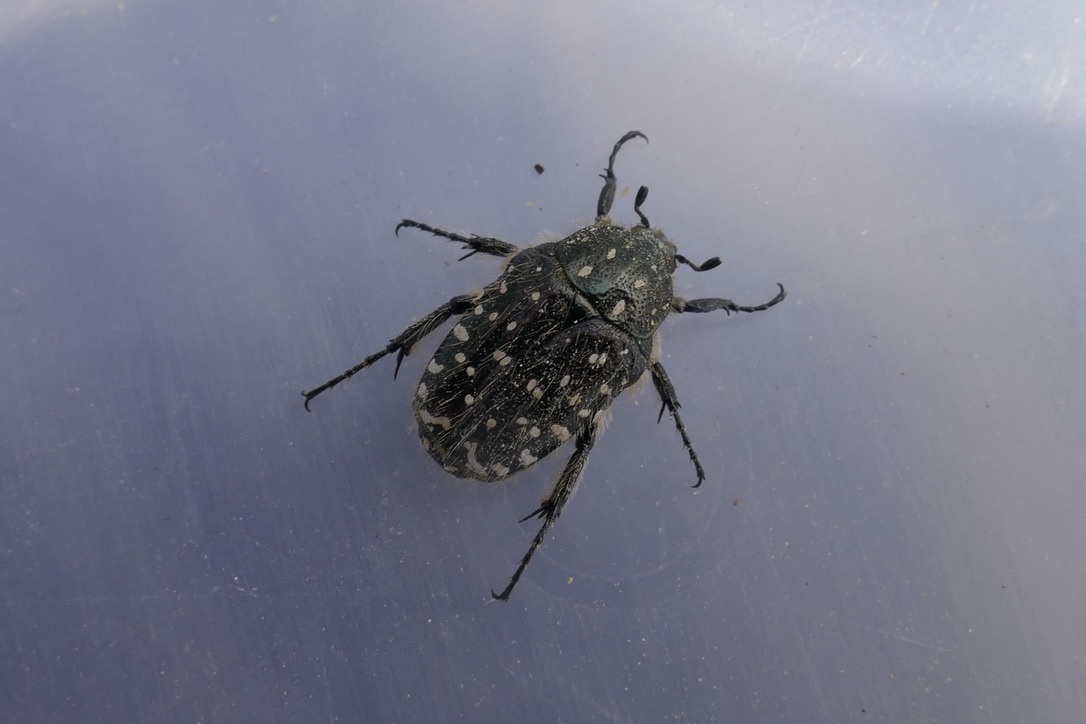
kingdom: Animalia
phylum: Arthropoda
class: Insecta
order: Coleoptera
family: Scarabaeidae
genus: Oxythyrea
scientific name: Oxythyrea funesta
